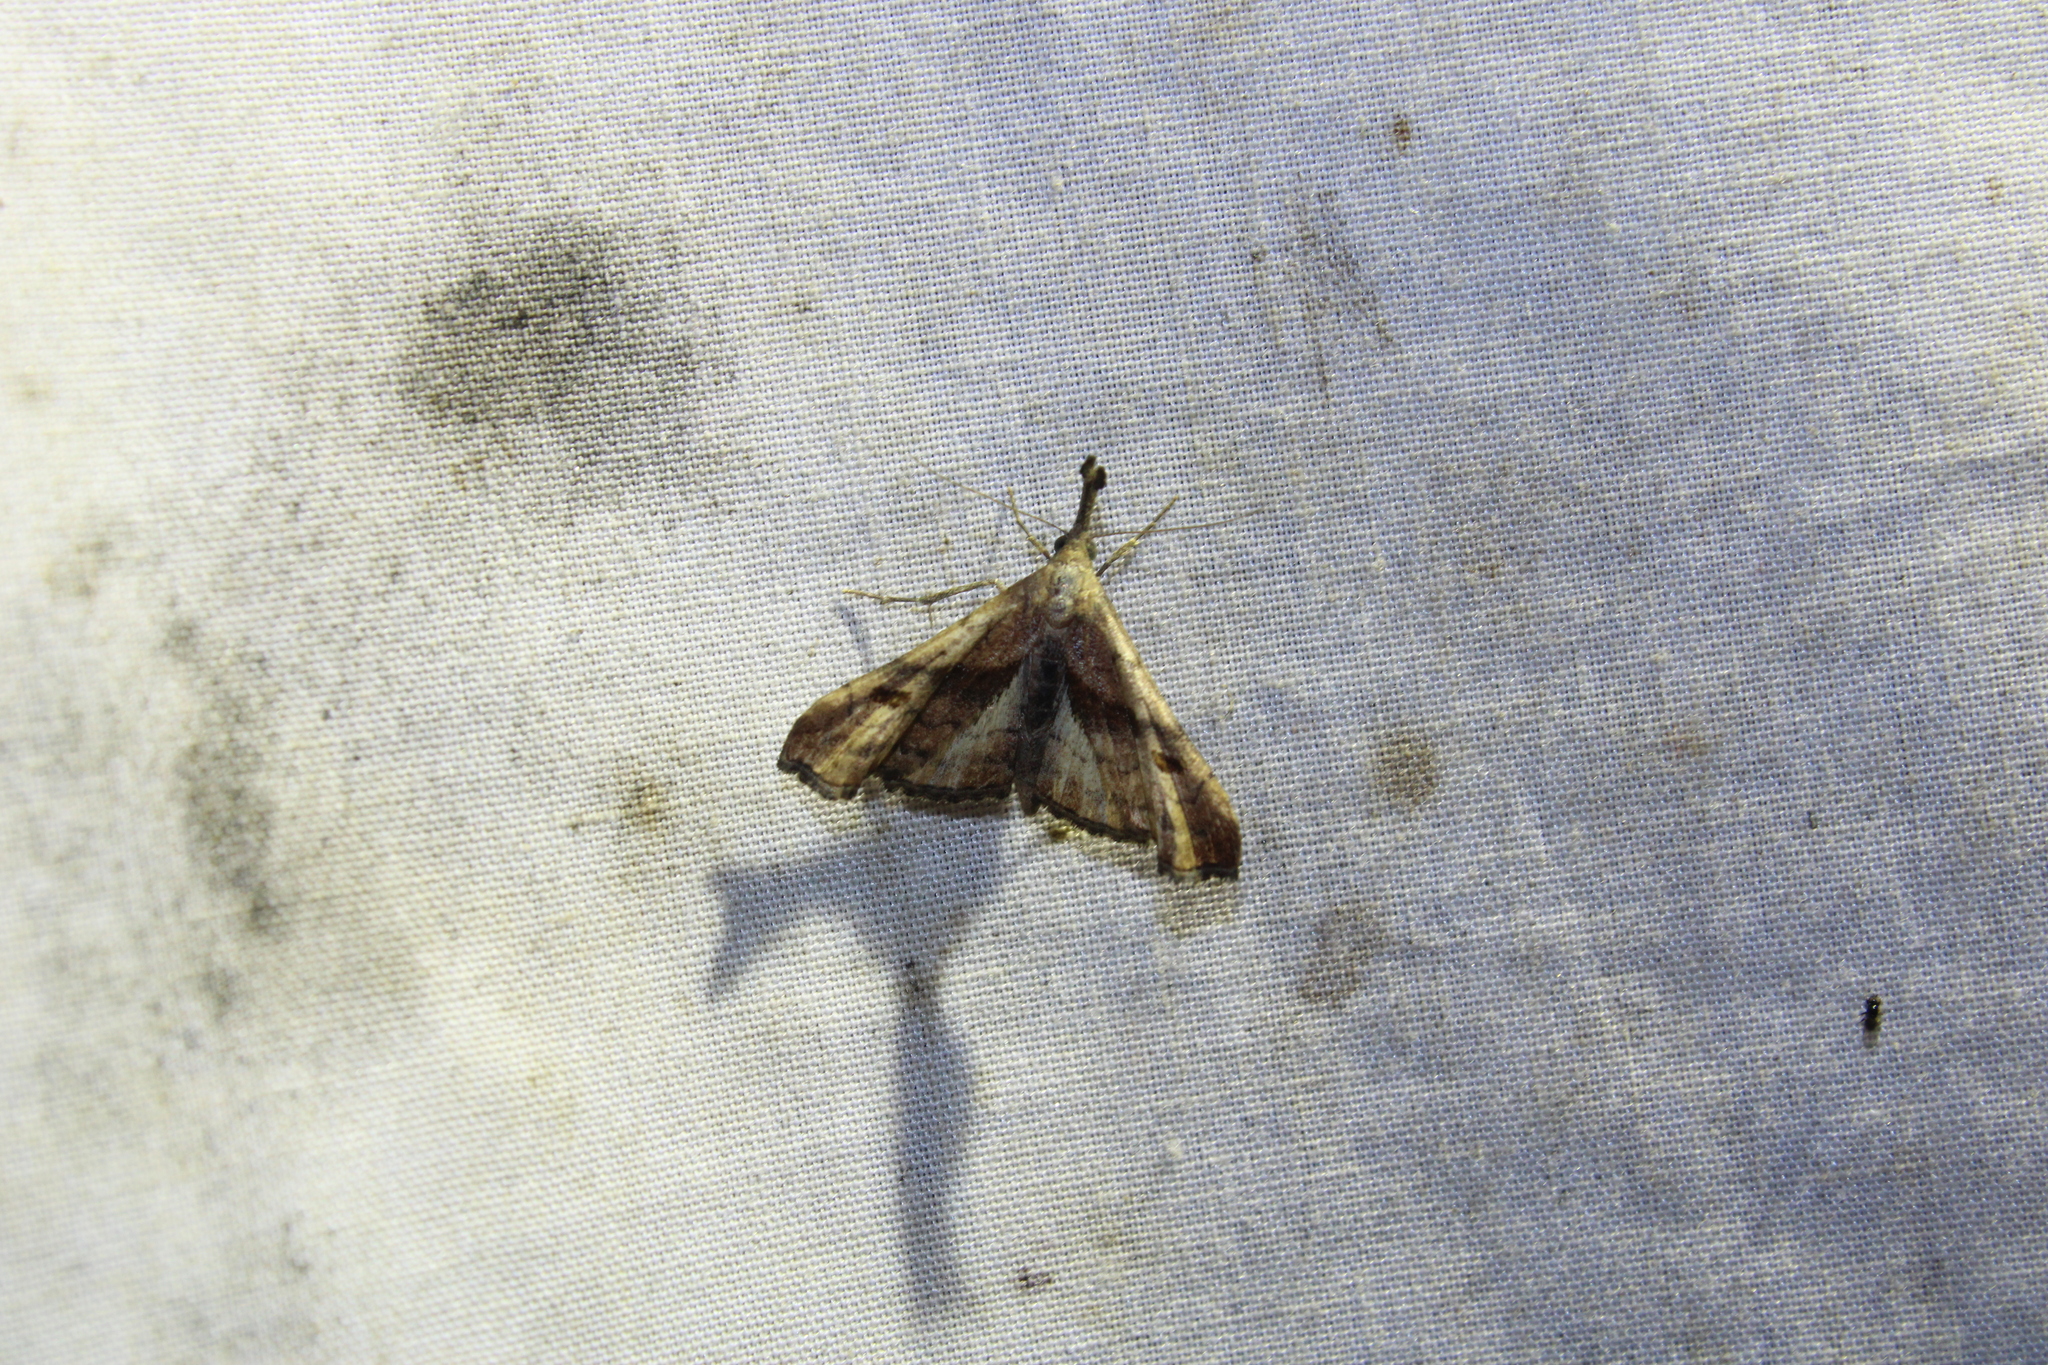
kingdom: Animalia
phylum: Arthropoda
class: Insecta
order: Lepidoptera
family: Erebidae
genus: Palthis
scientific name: Palthis angulalis
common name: Dark-spotted palthis moth
